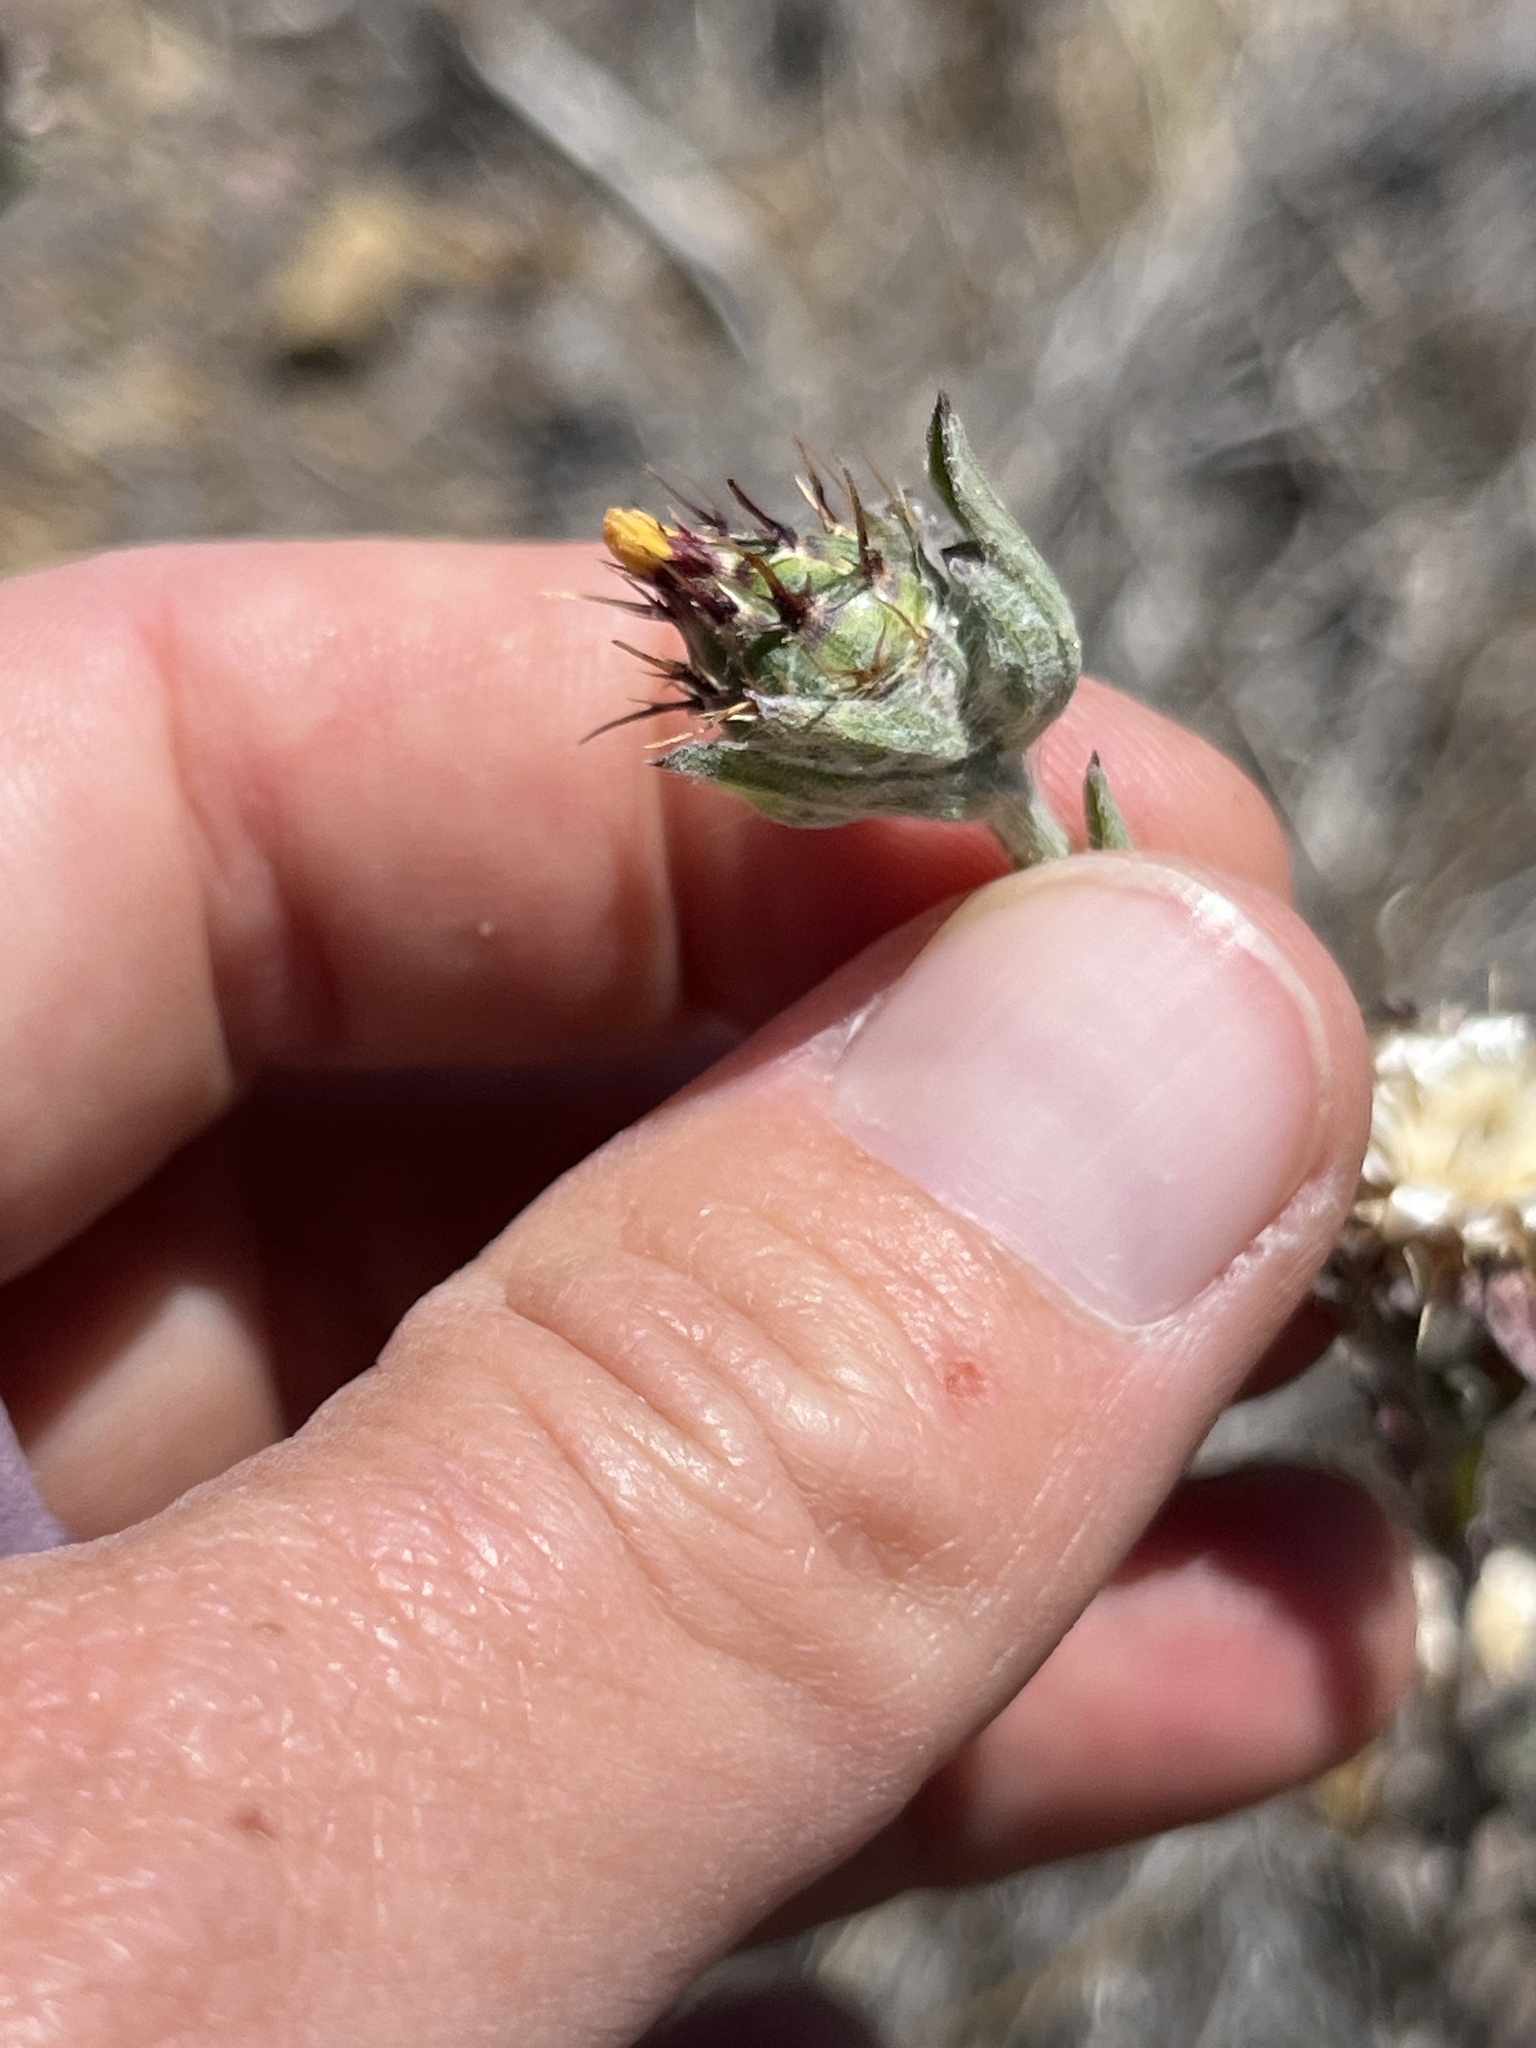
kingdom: Plantae
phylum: Tracheophyta
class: Magnoliopsida
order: Asterales
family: Asteraceae
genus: Centaurea
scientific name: Centaurea melitensis
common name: Maltese star-thistle
